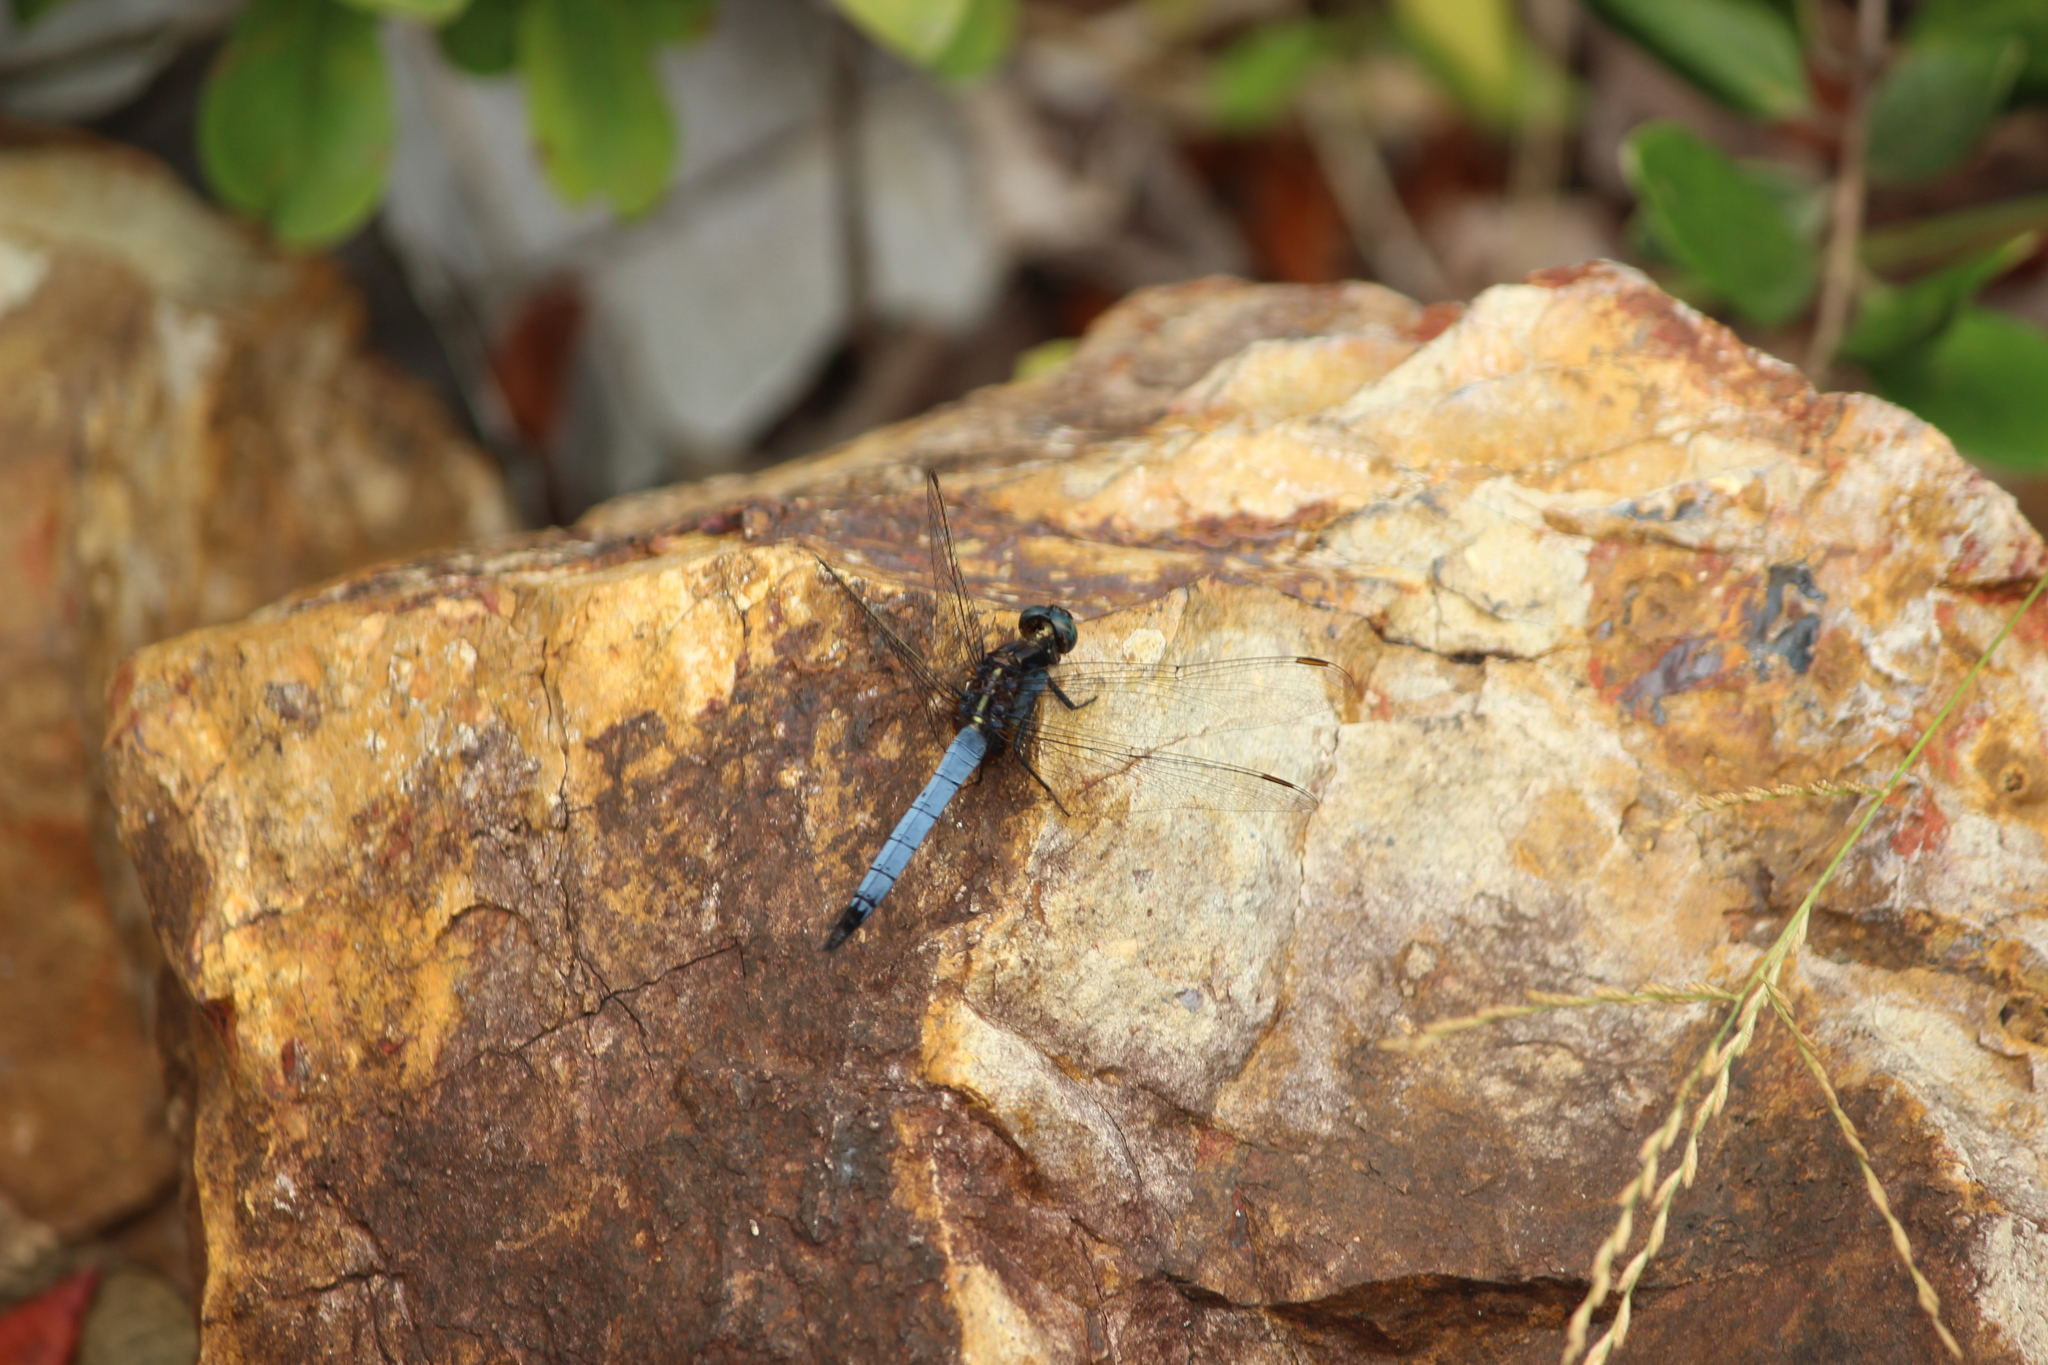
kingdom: Animalia
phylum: Arthropoda
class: Insecta
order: Odonata
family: Libellulidae
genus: Orthetrum
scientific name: Orthetrum glaucum
